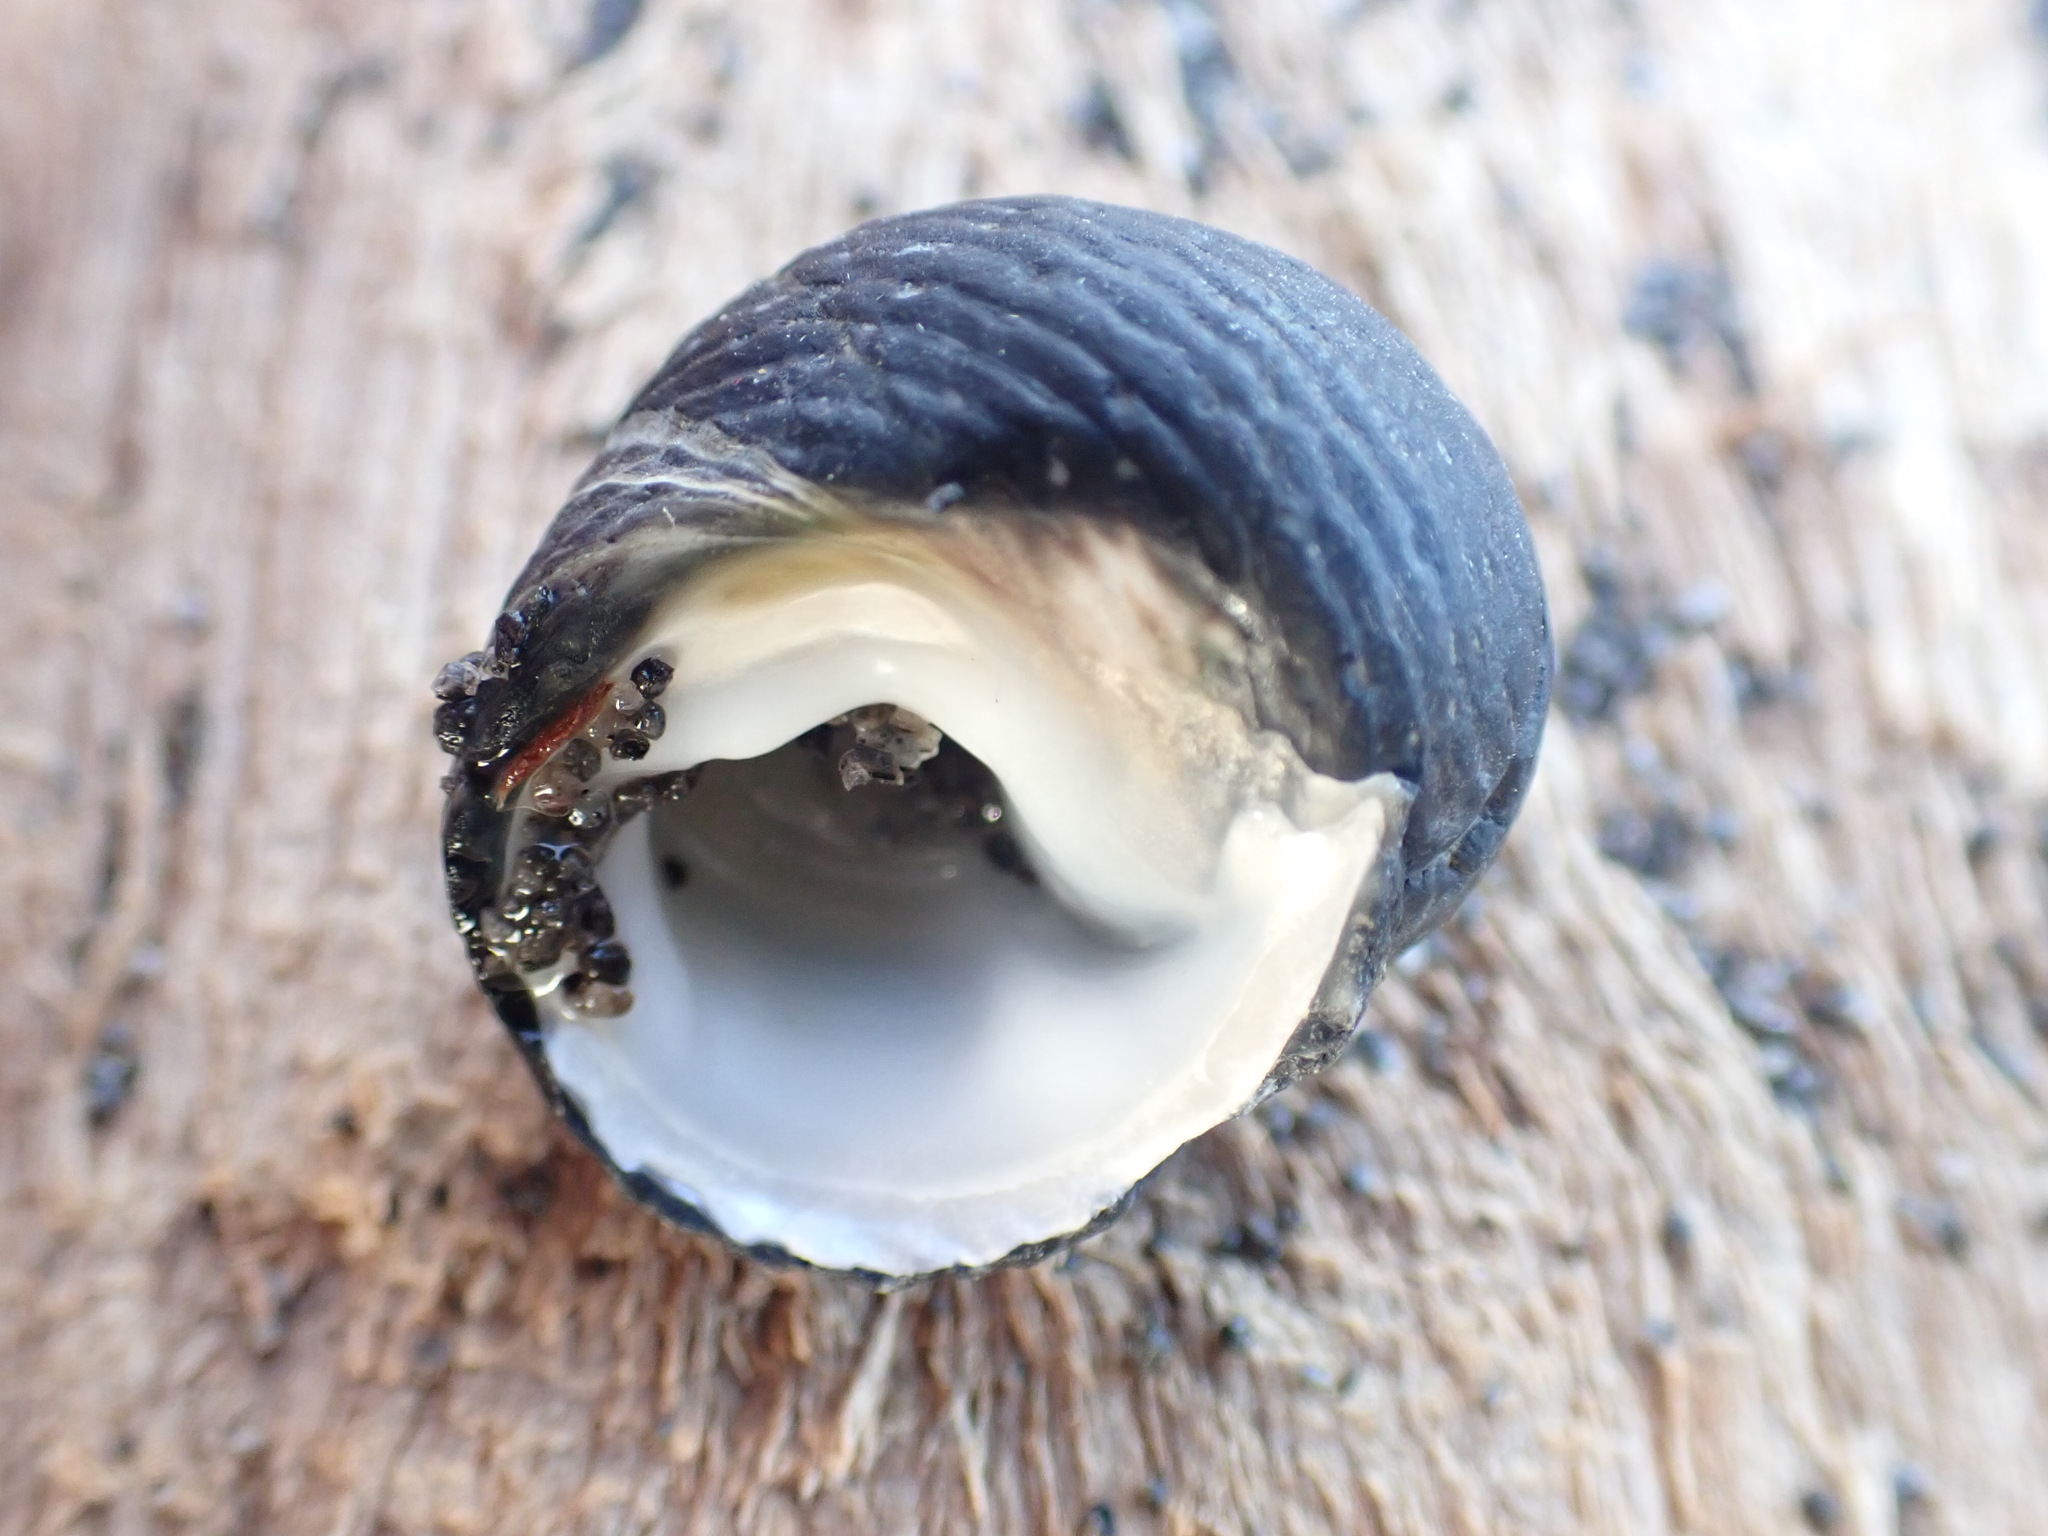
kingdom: Animalia
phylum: Mollusca
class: Gastropoda
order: Trochida
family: Trochidae
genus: Diloma
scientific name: Diloma zelandicum
